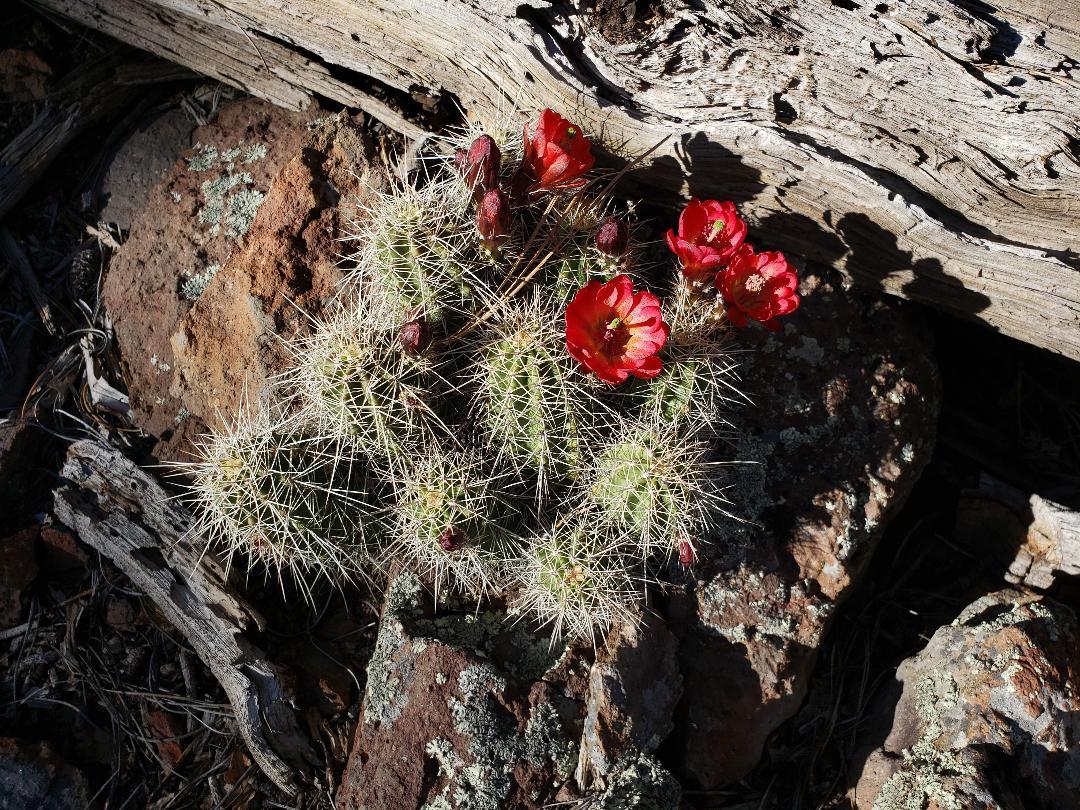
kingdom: Plantae
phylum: Tracheophyta
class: Magnoliopsida
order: Caryophyllales
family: Cactaceae
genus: Echinocereus
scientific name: Echinocereus bakeri
